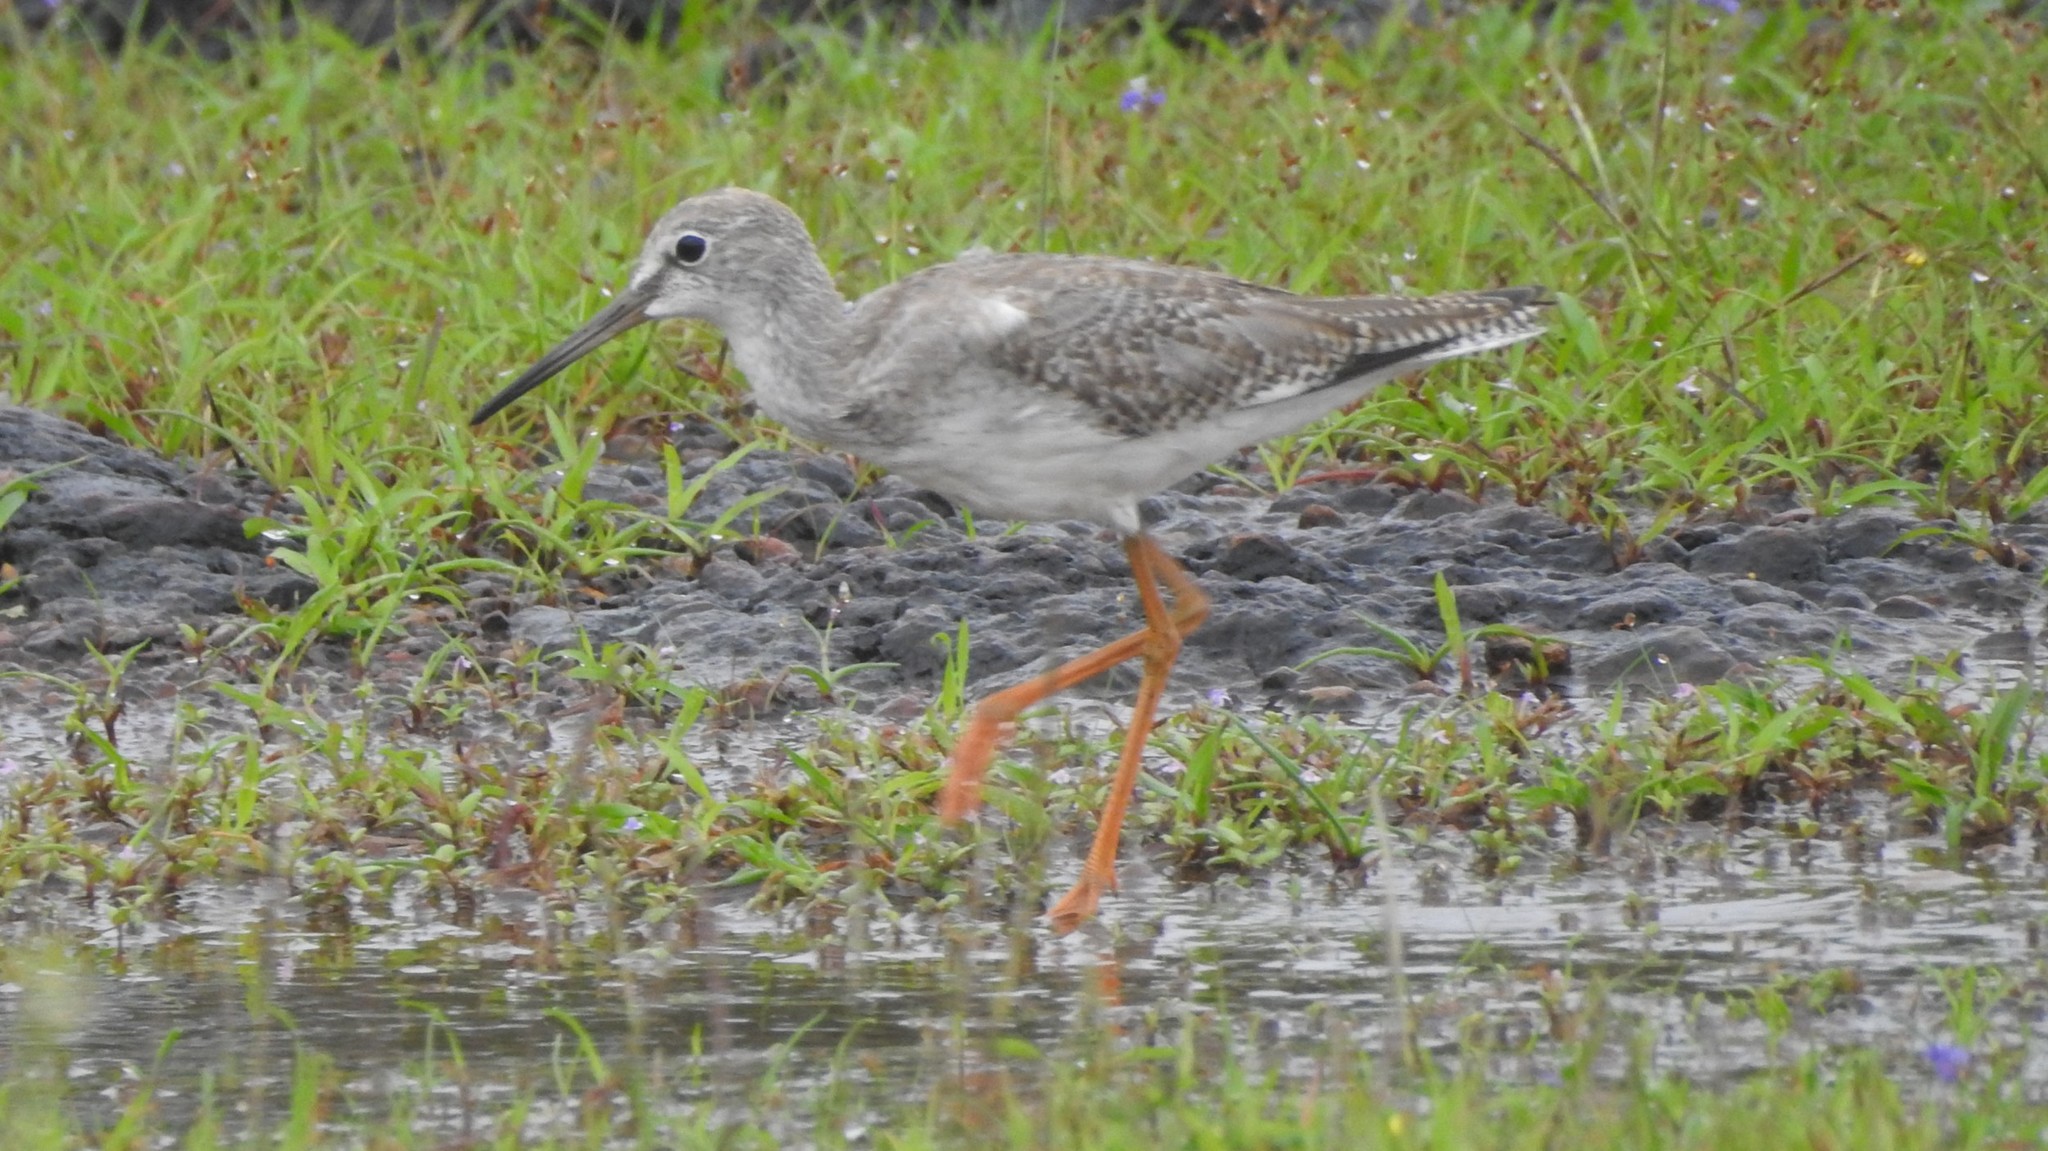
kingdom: Animalia
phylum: Chordata
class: Aves
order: Charadriiformes
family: Scolopacidae
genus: Tringa
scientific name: Tringa totanus
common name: Common redshank
